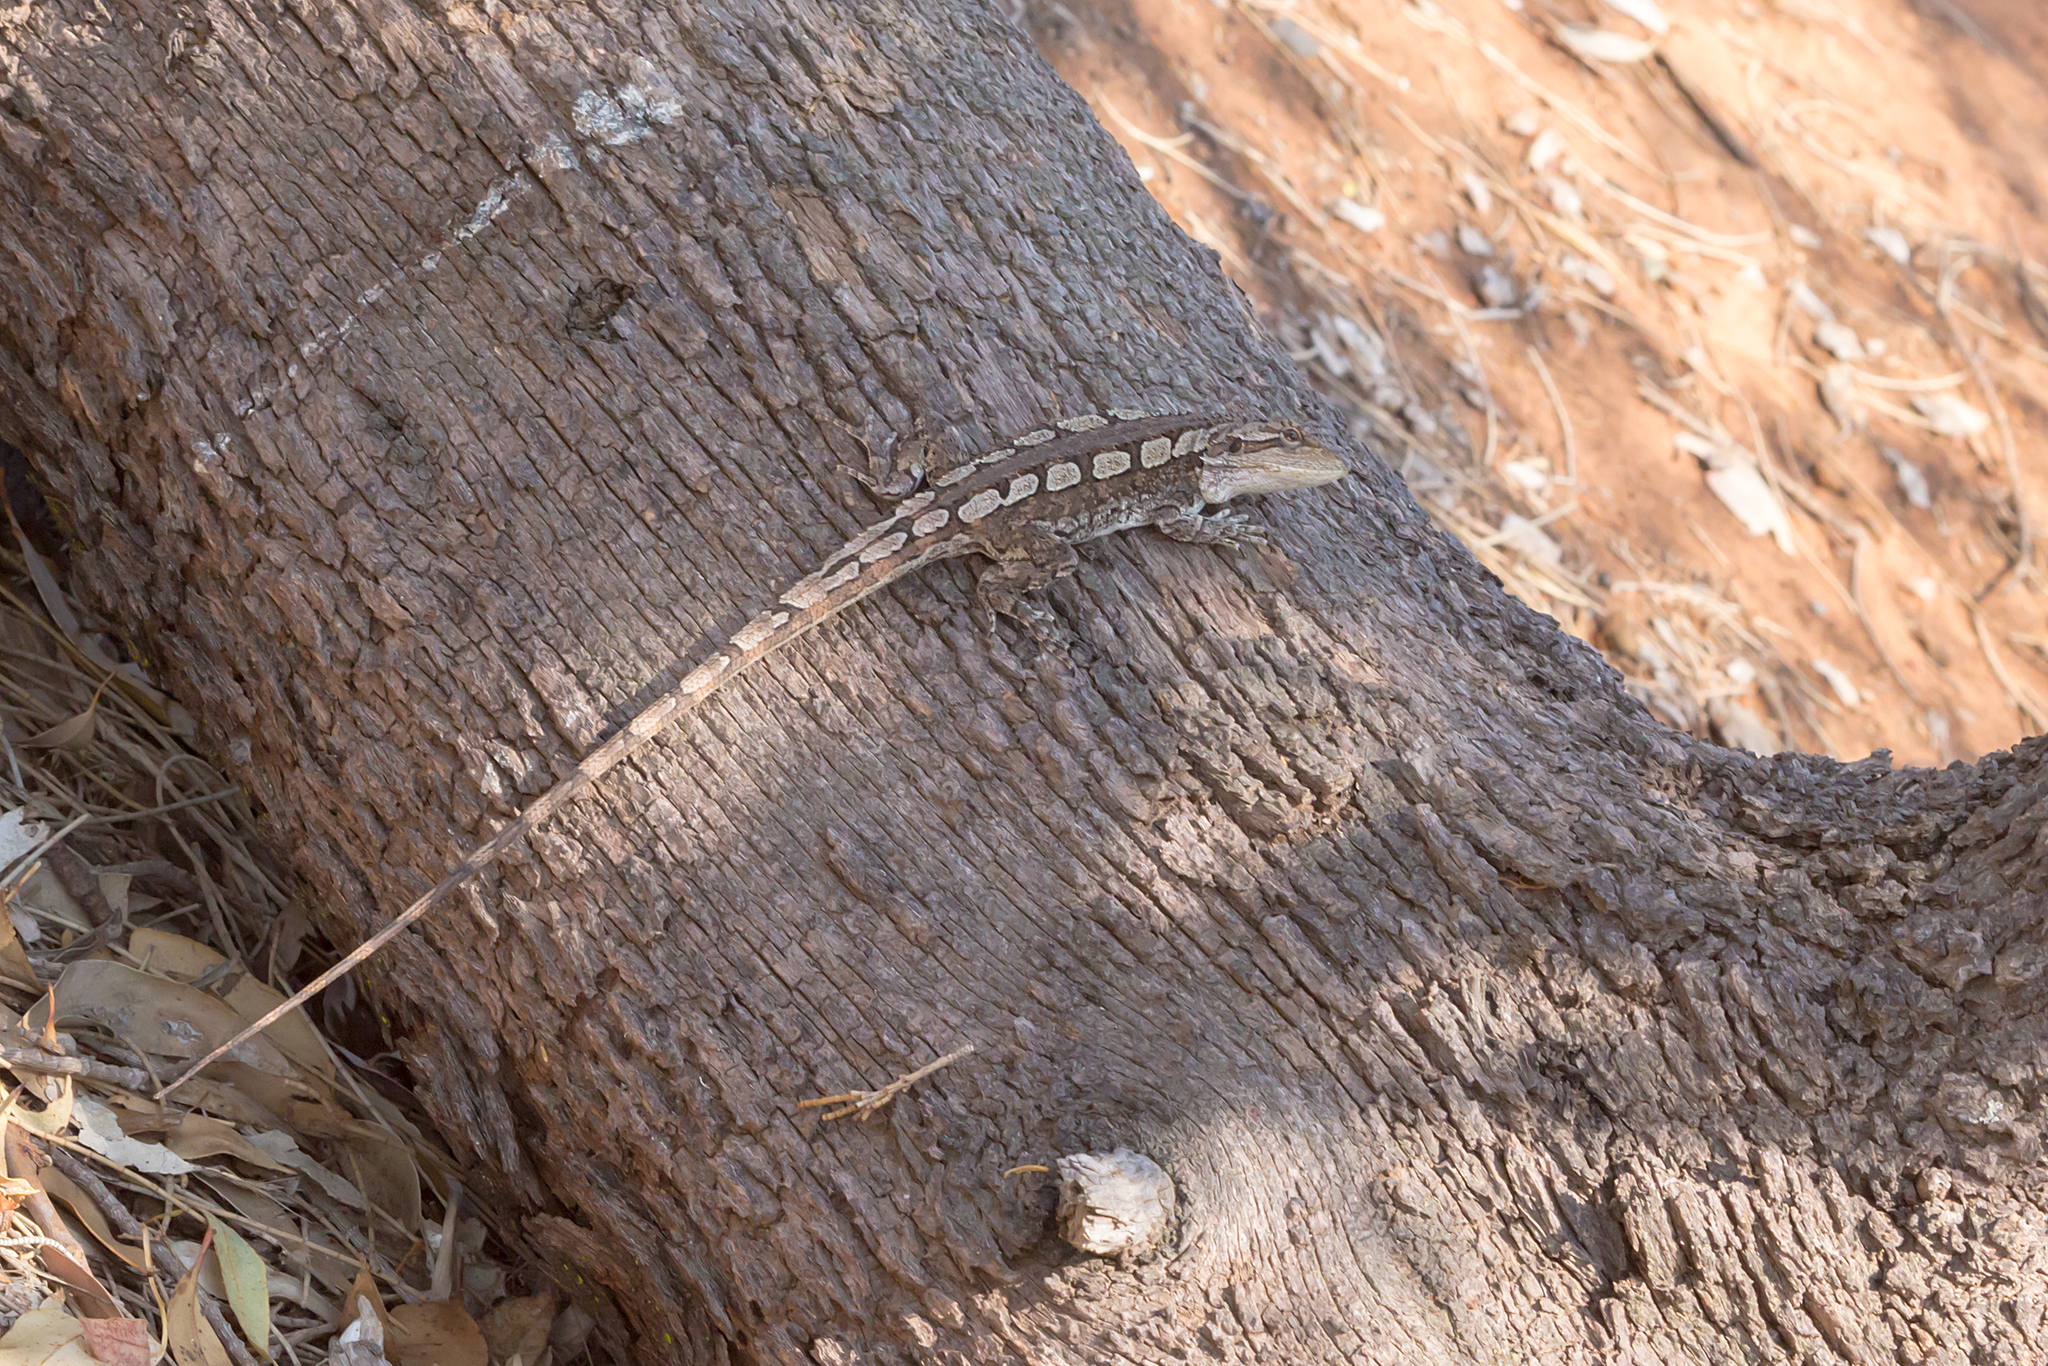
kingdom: Animalia
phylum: Chordata
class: Squamata
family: Agamidae
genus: Amphibolurus
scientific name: Amphibolurus muricatus
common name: Jacky lizard
